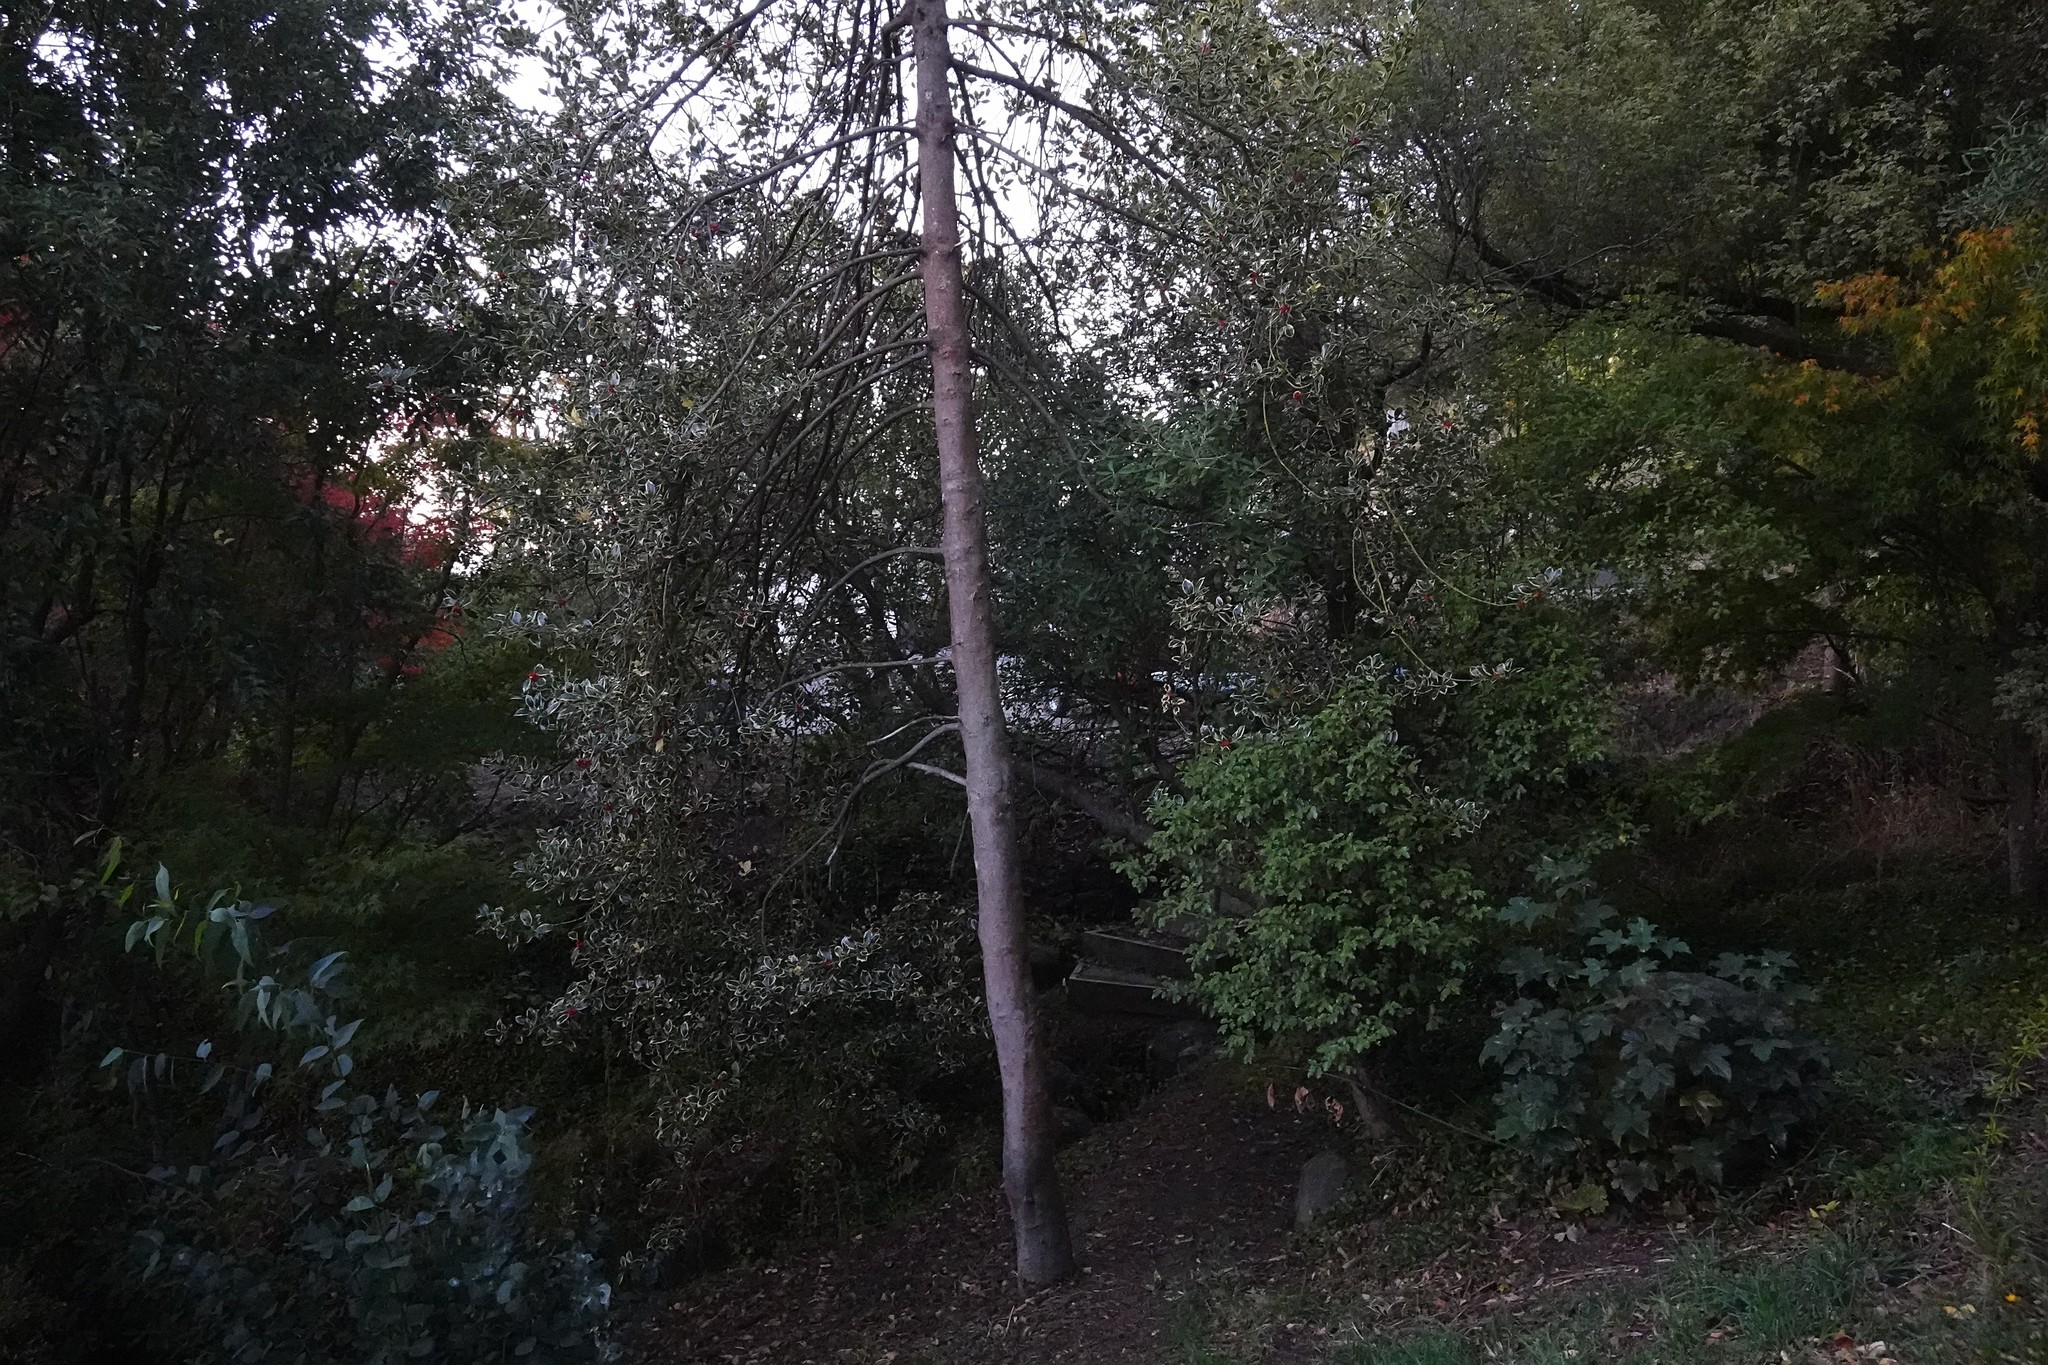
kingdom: Plantae
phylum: Tracheophyta
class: Magnoliopsida
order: Apiales
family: Pittosporaceae
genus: Pittosporum
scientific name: Pittosporum tenuifolium
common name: Kohuhu
